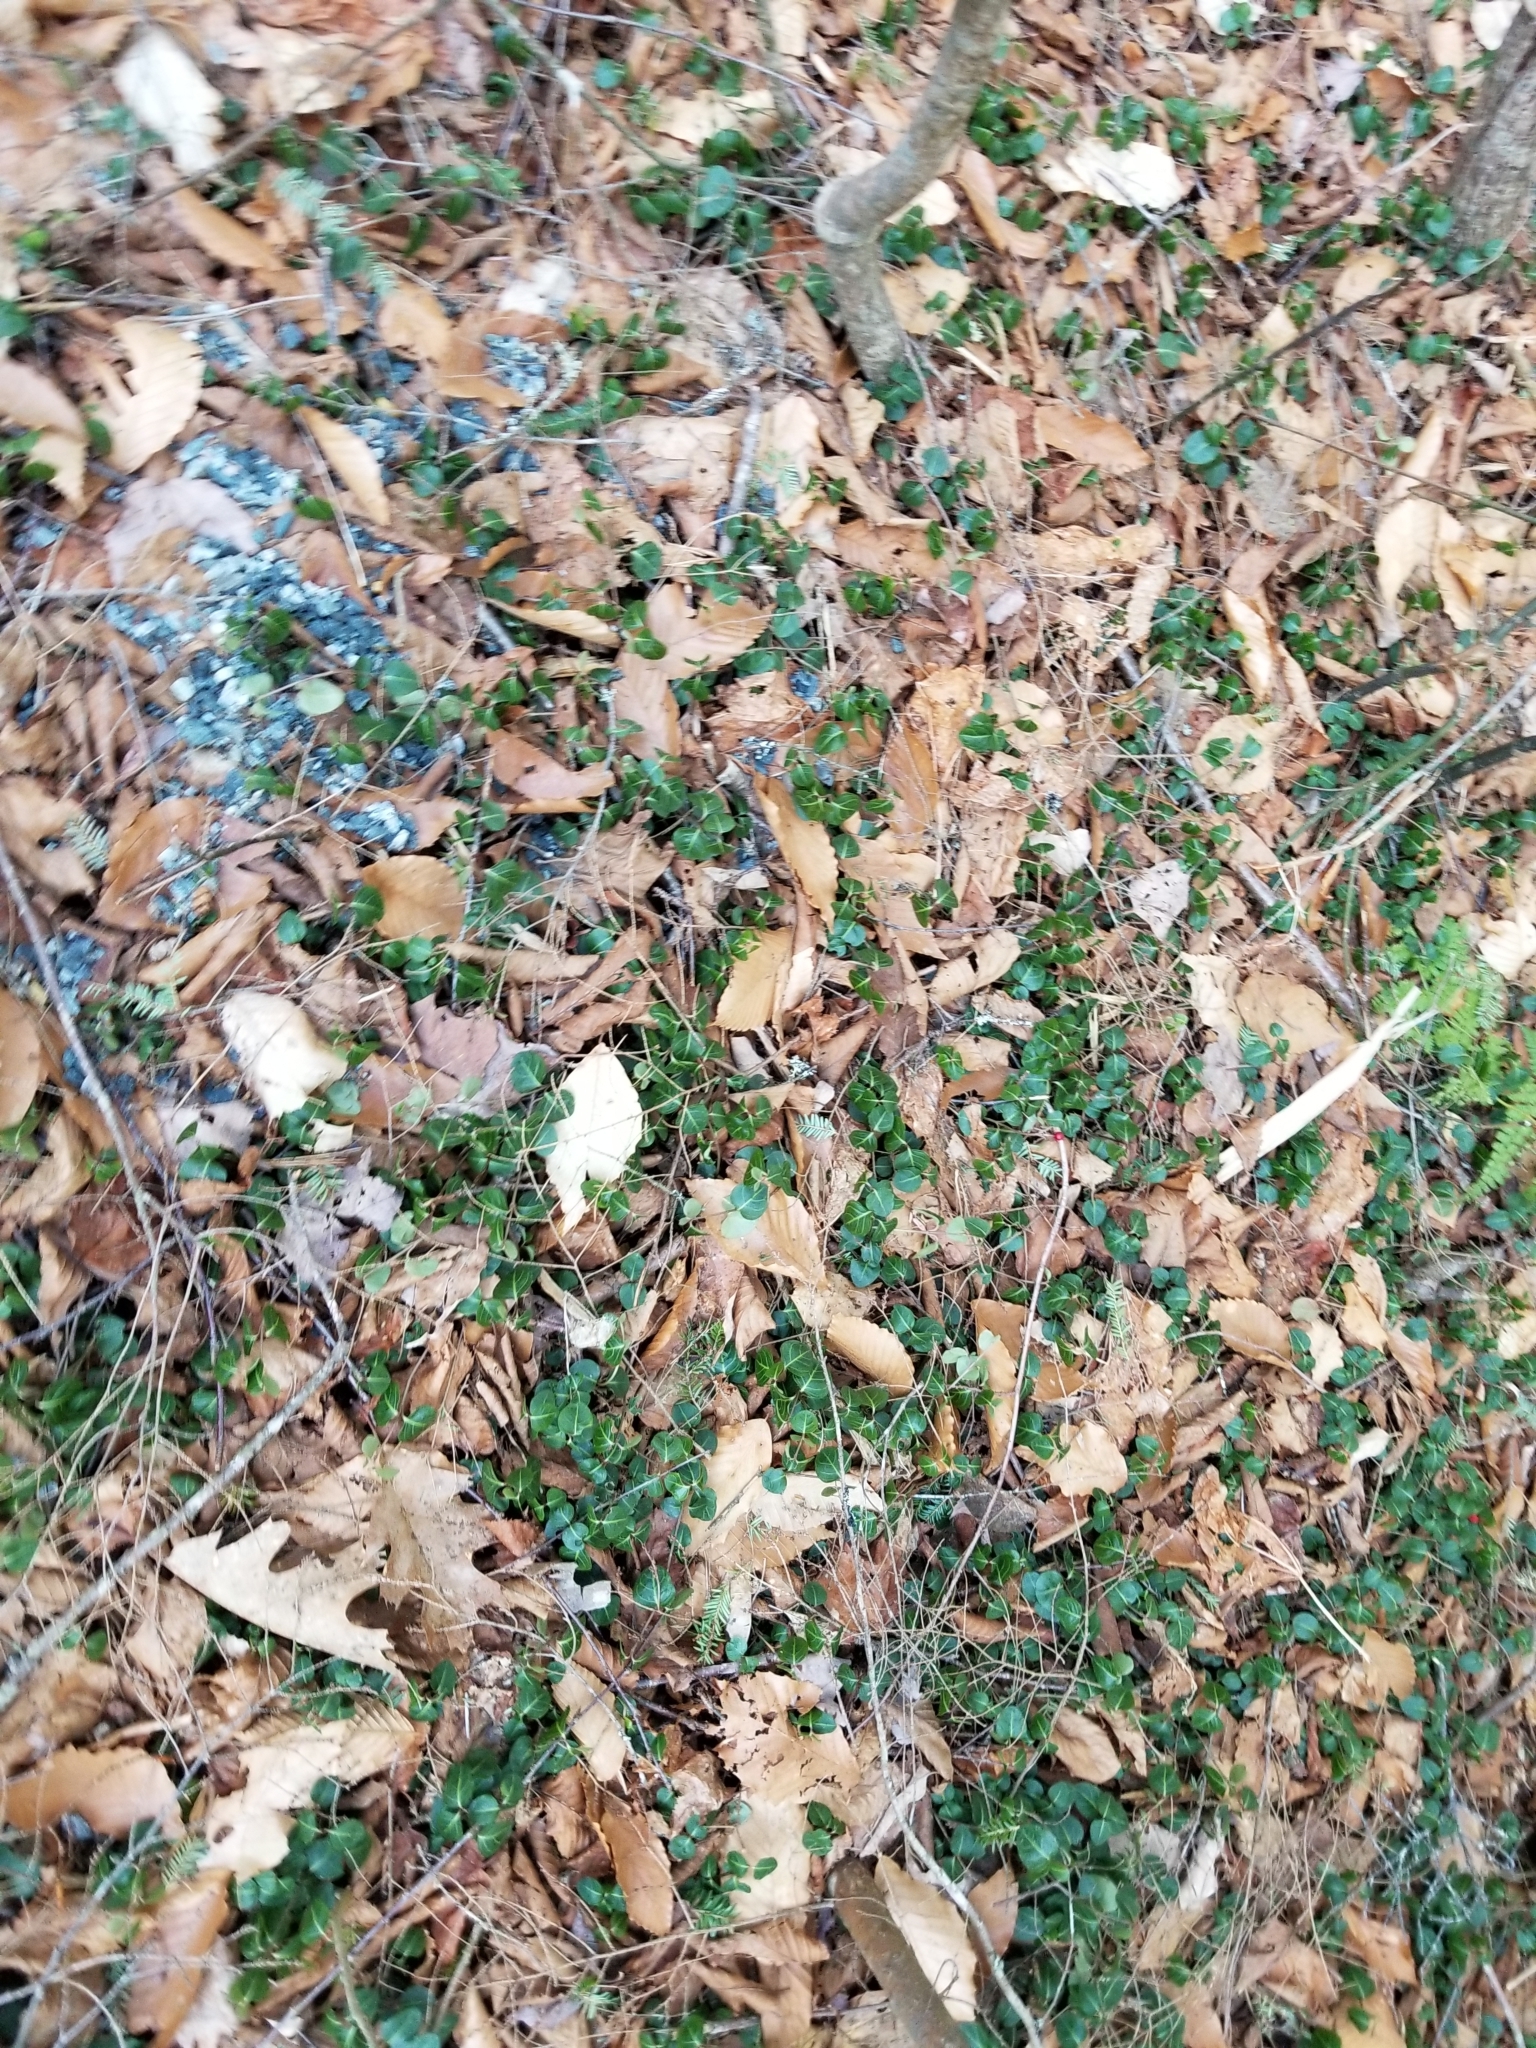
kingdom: Plantae
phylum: Tracheophyta
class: Magnoliopsida
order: Gentianales
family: Rubiaceae
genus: Mitchella
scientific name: Mitchella repens
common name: Partridge-berry
